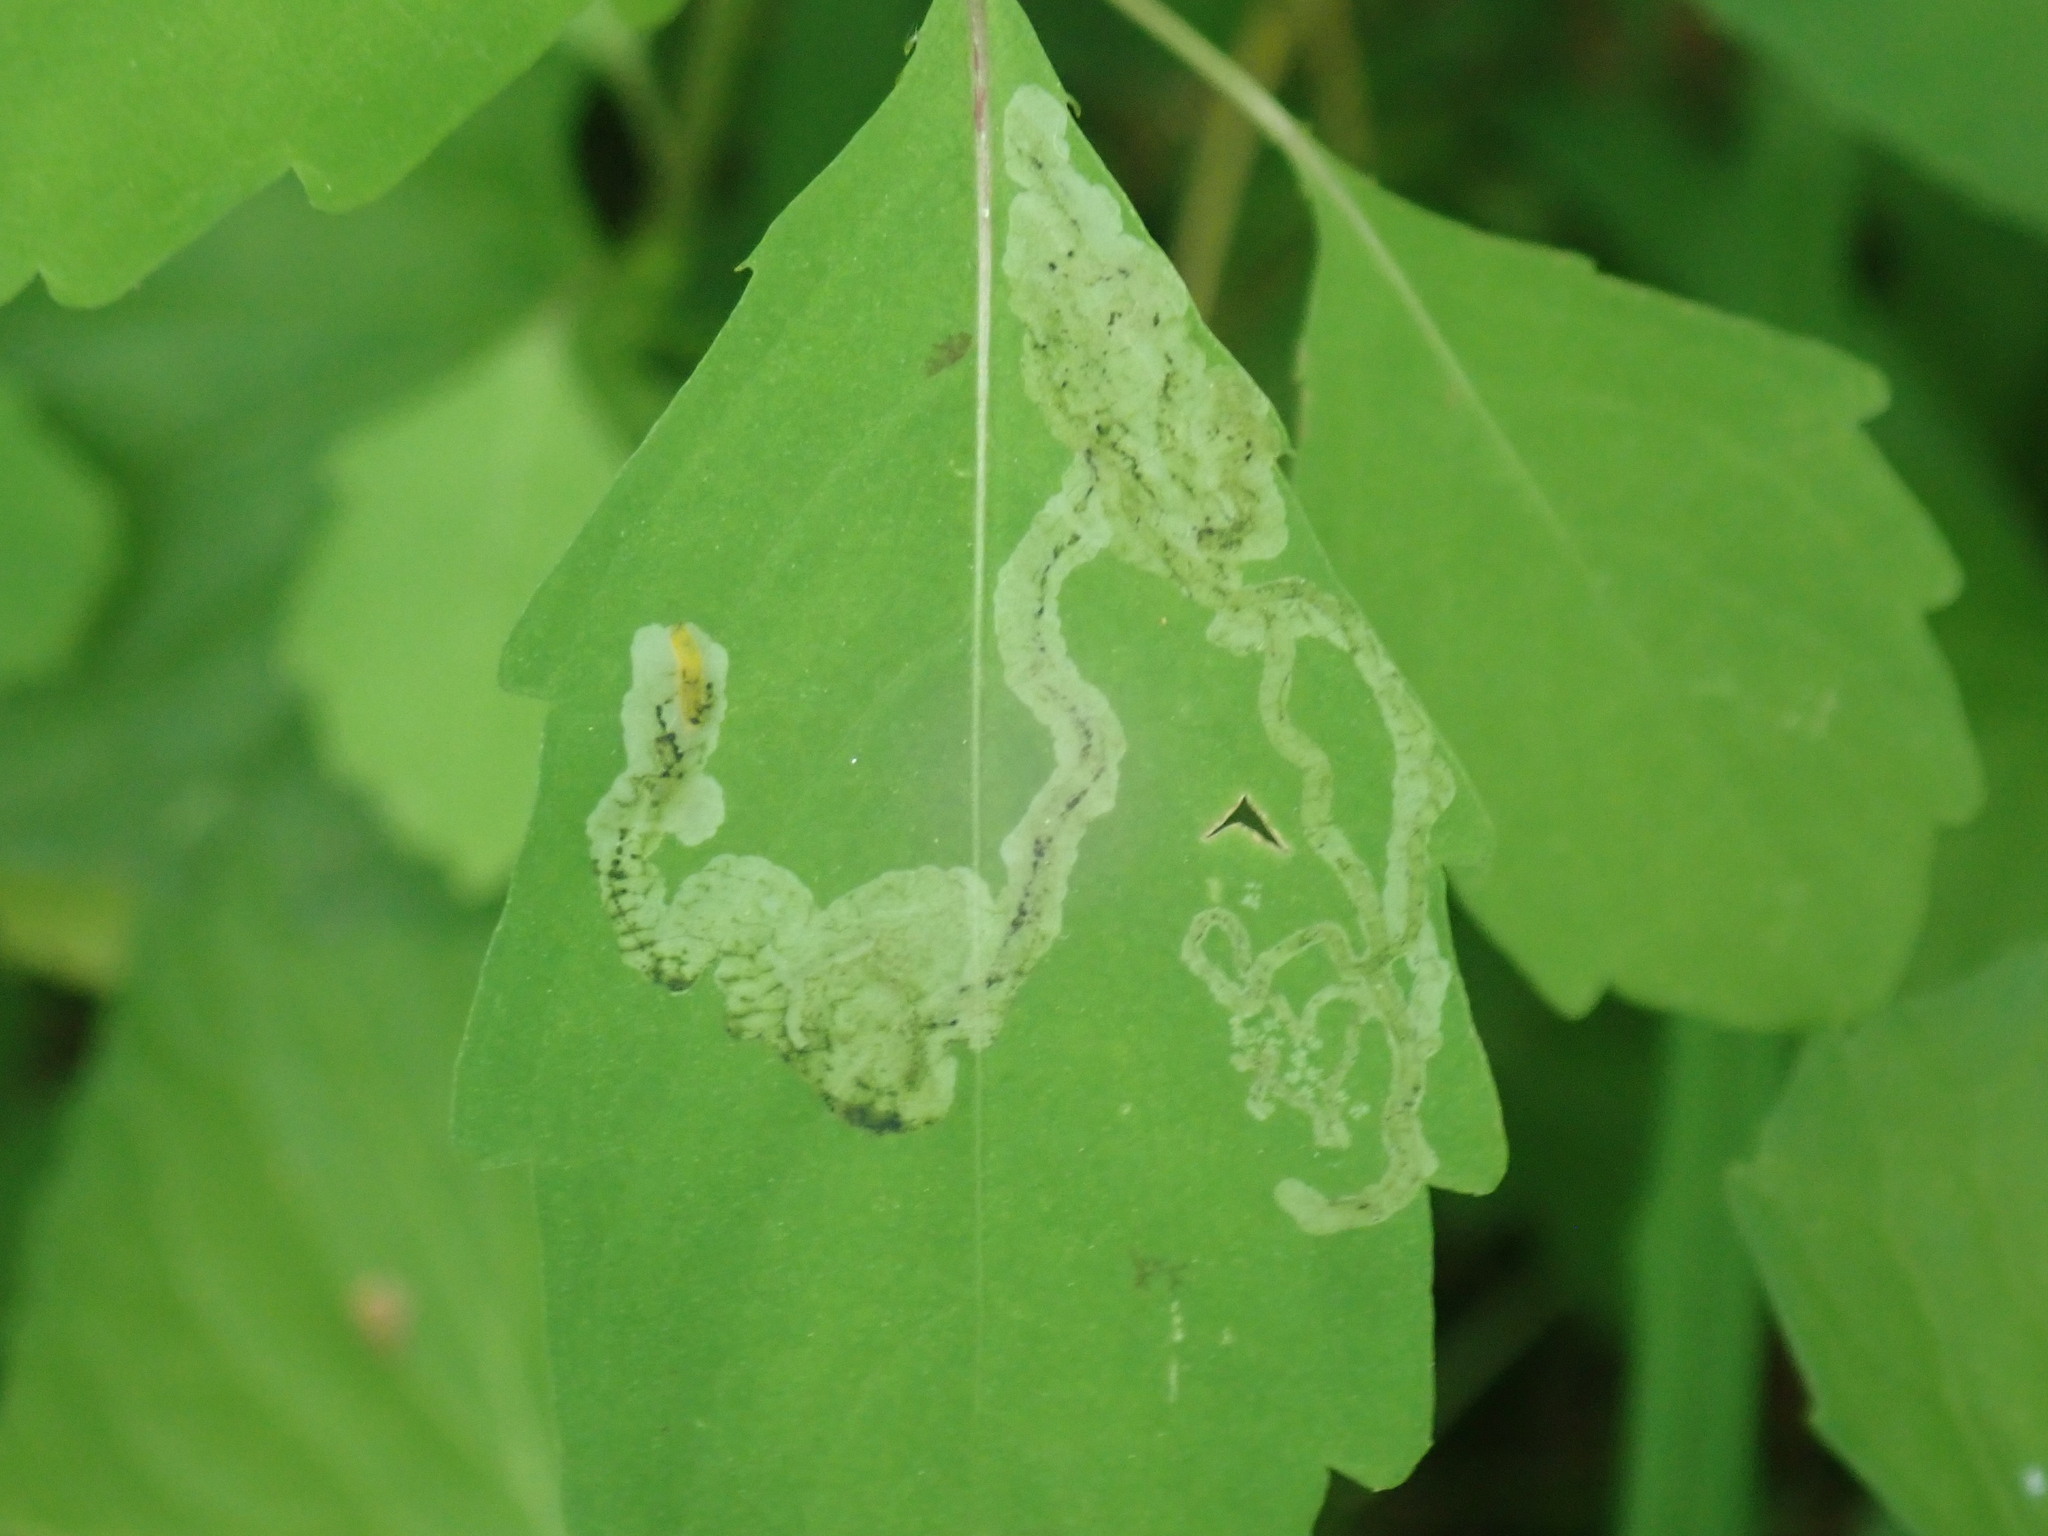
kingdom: Animalia
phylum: Arthropoda
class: Insecta
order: Diptera
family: Agromyzidae
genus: Phytoliriomyza
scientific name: Phytoliriomyza melampyga
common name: Jewelweed leaf-miner fly
